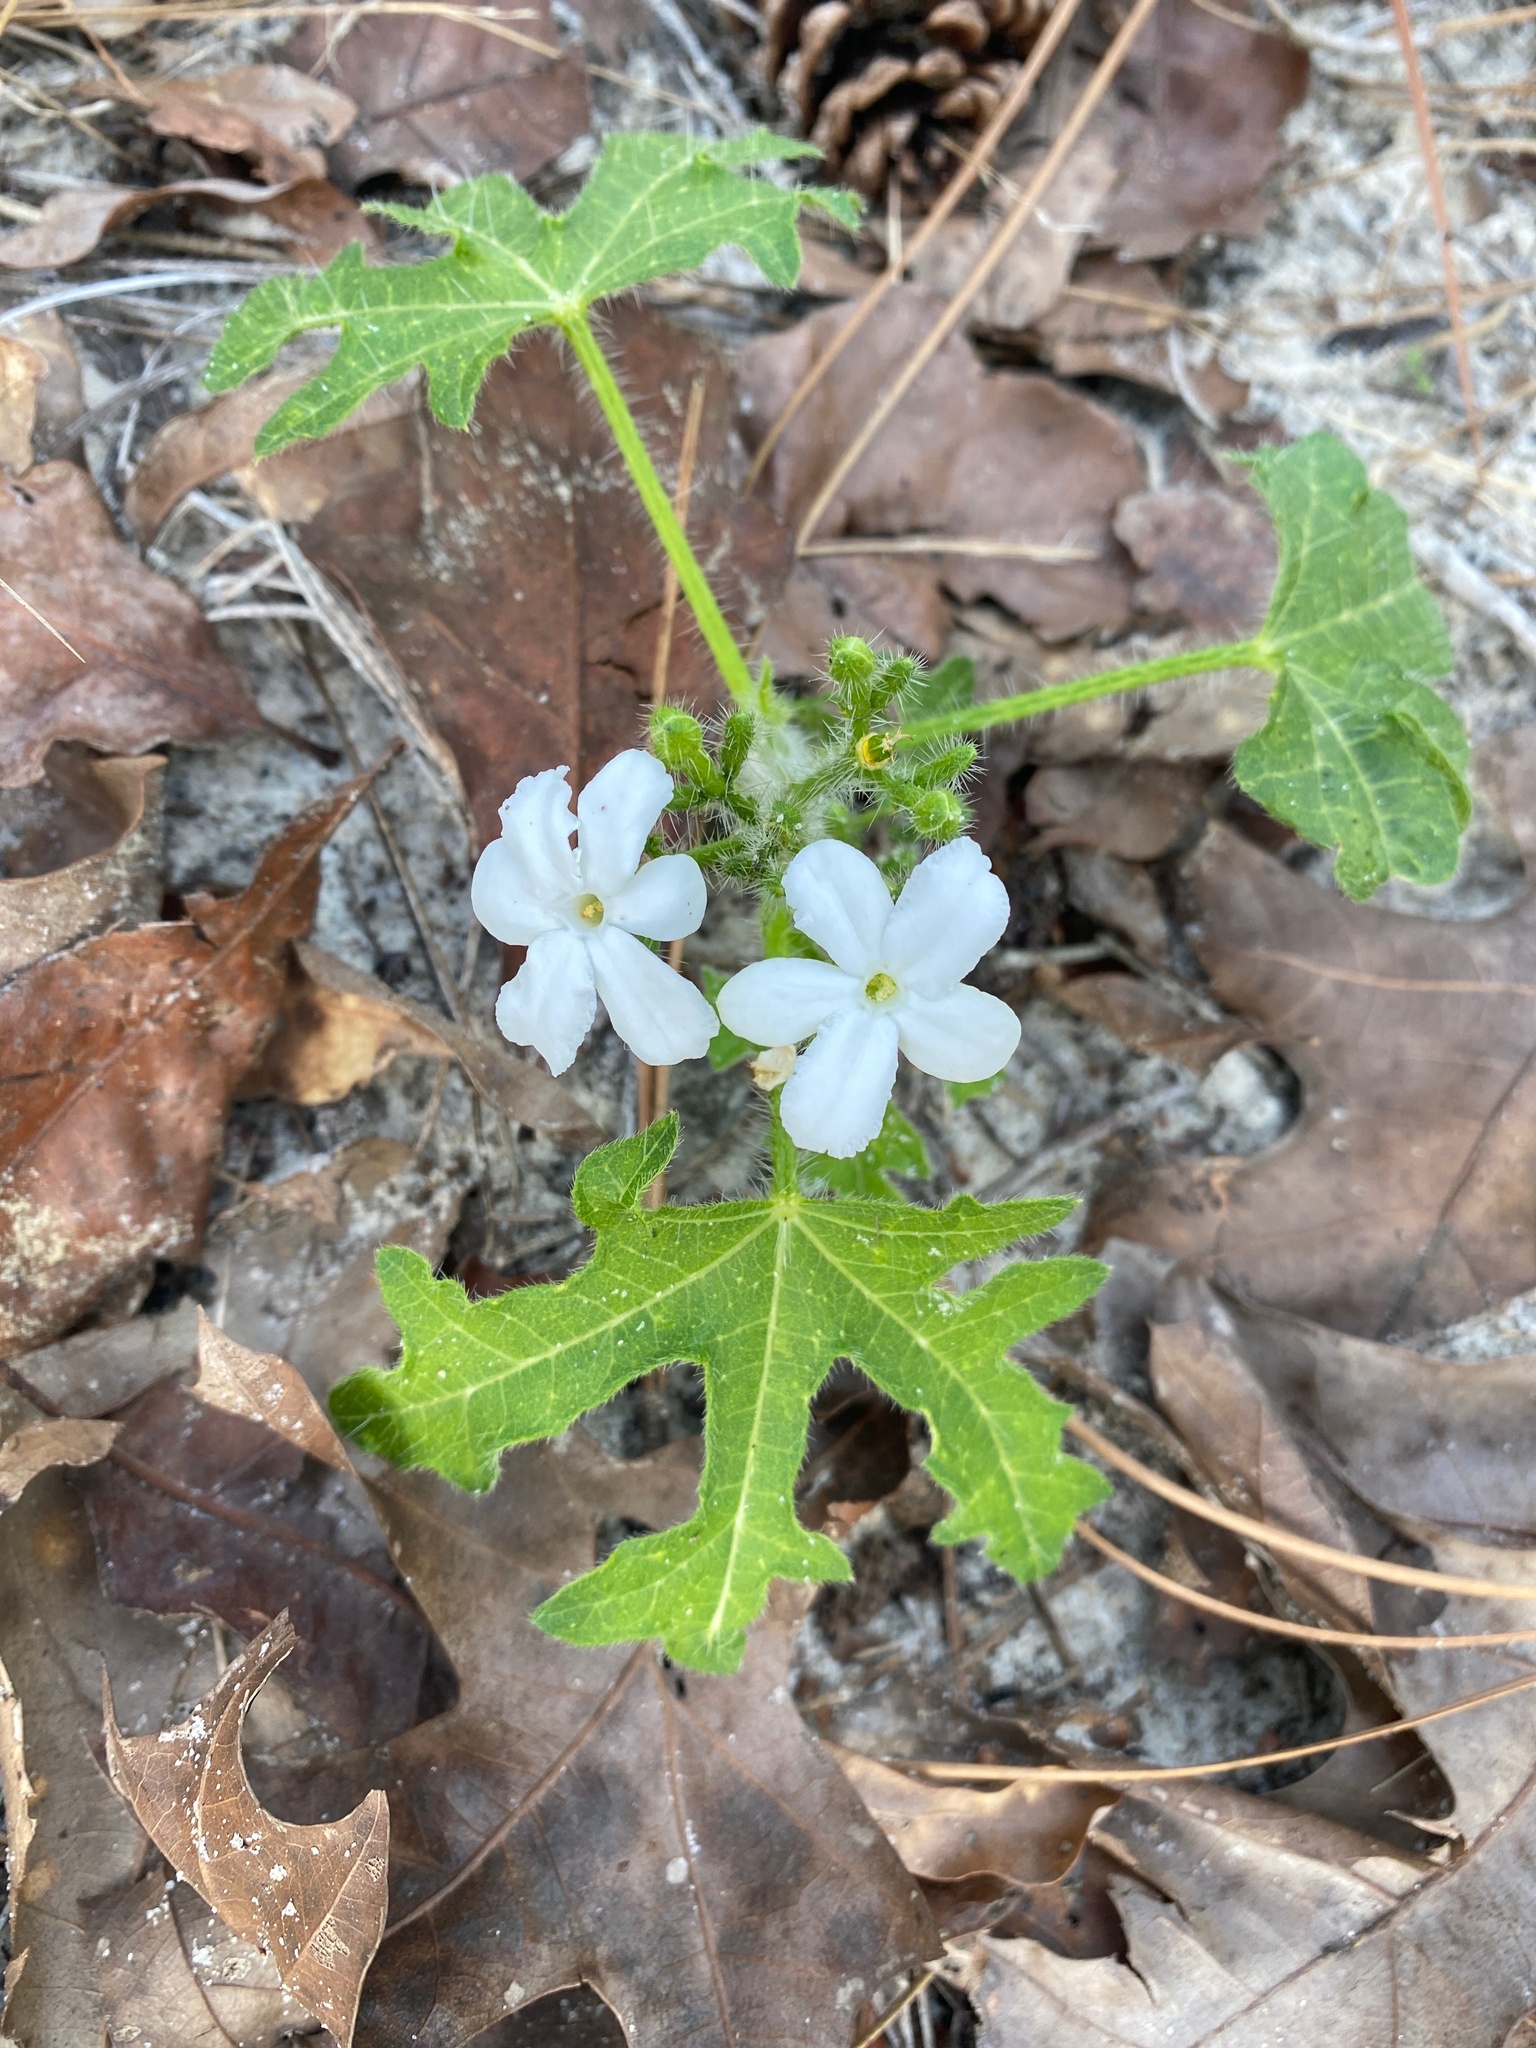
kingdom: Plantae
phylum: Tracheophyta
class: Magnoliopsida
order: Malpighiales
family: Euphorbiaceae
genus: Cnidoscolus
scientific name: Cnidoscolus stimulosus
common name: Bull-nettle
